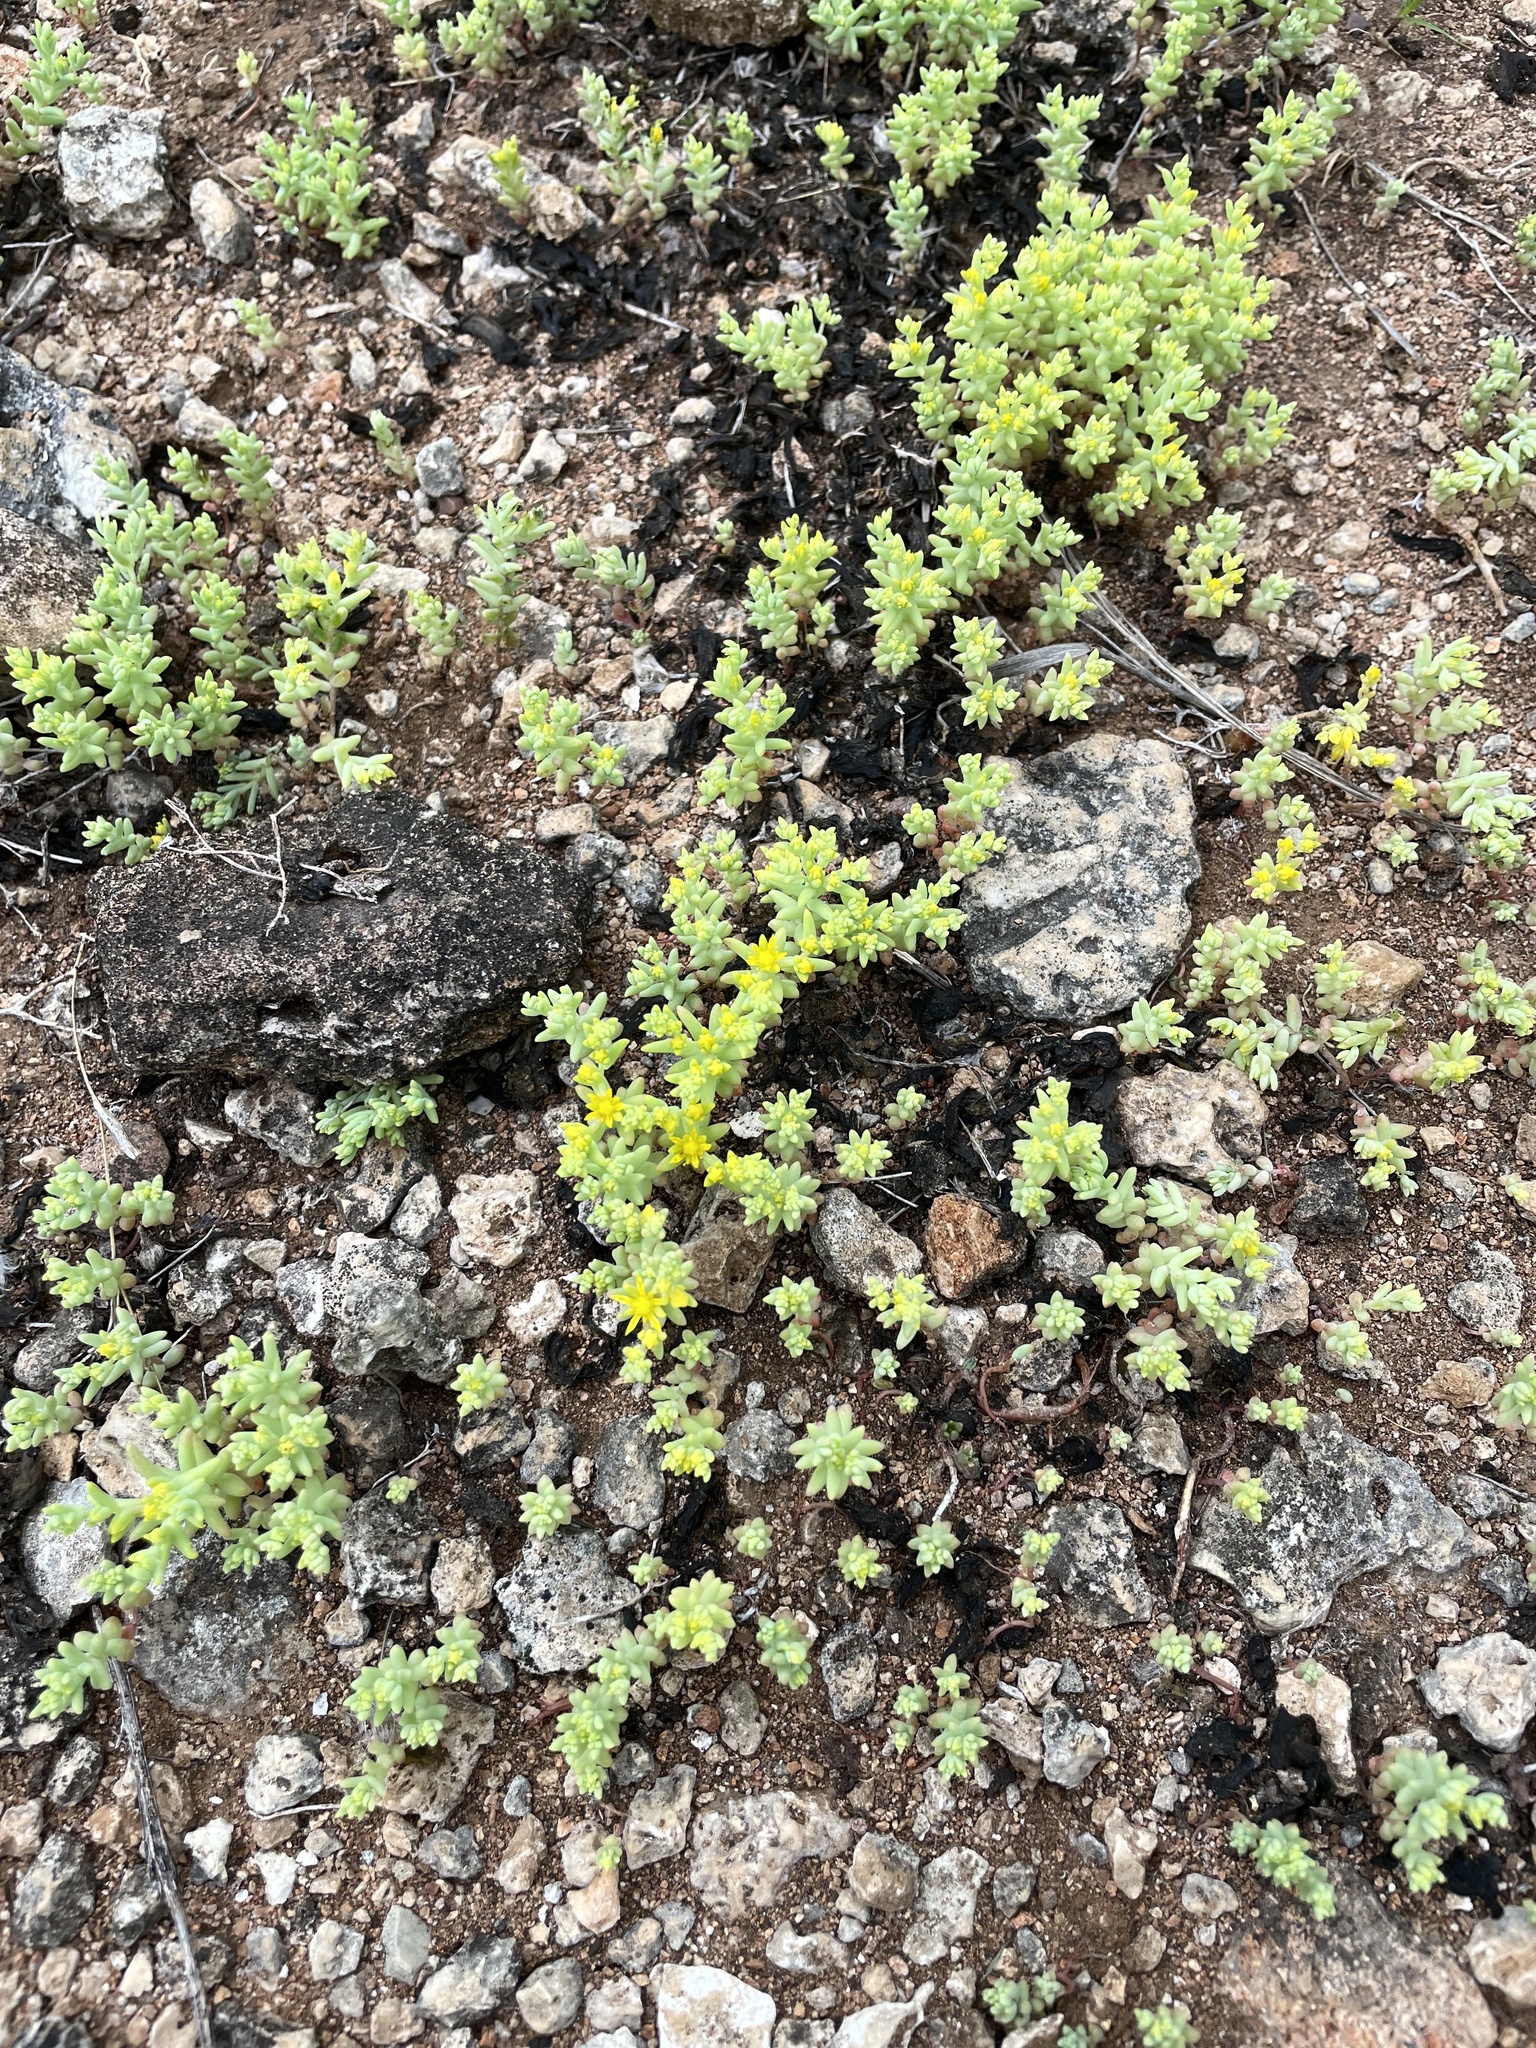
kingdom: Plantae
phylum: Tracheophyta
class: Magnoliopsida
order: Saxifragales
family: Crassulaceae
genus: Sedum
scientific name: Sedum nuttallii
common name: Yellow stonecrop
